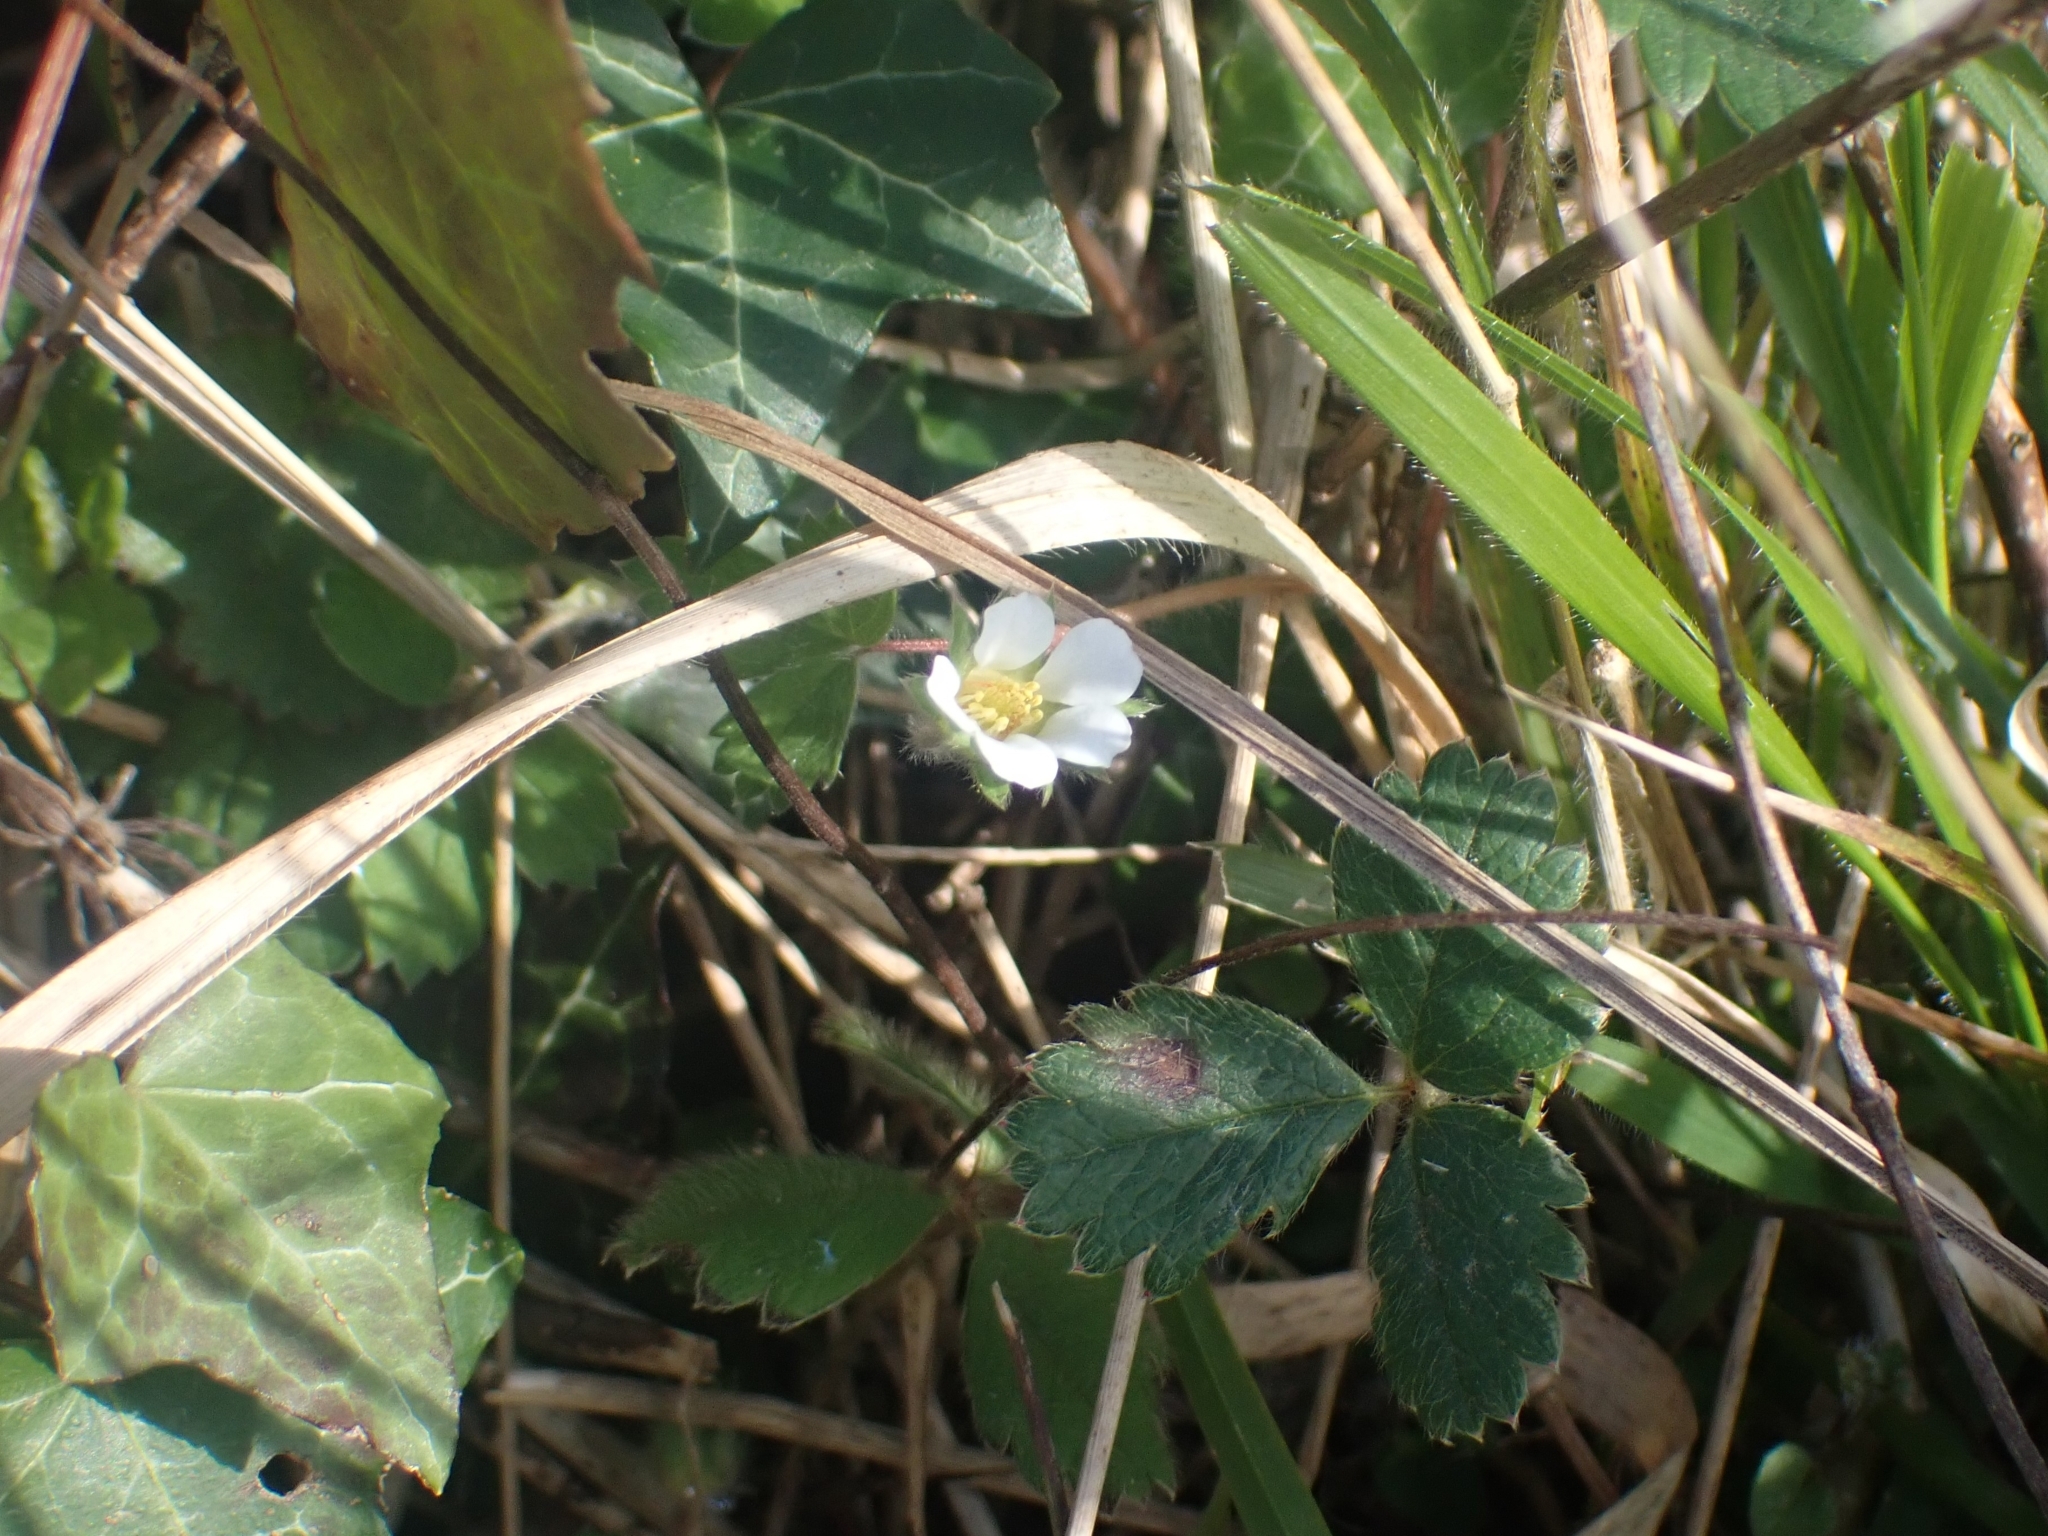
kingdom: Plantae
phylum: Tracheophyta
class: Magnoliopsida
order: Rosales
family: Rosaceae
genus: Potentilla
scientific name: Potentilla sterilis
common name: Barren strawberry
